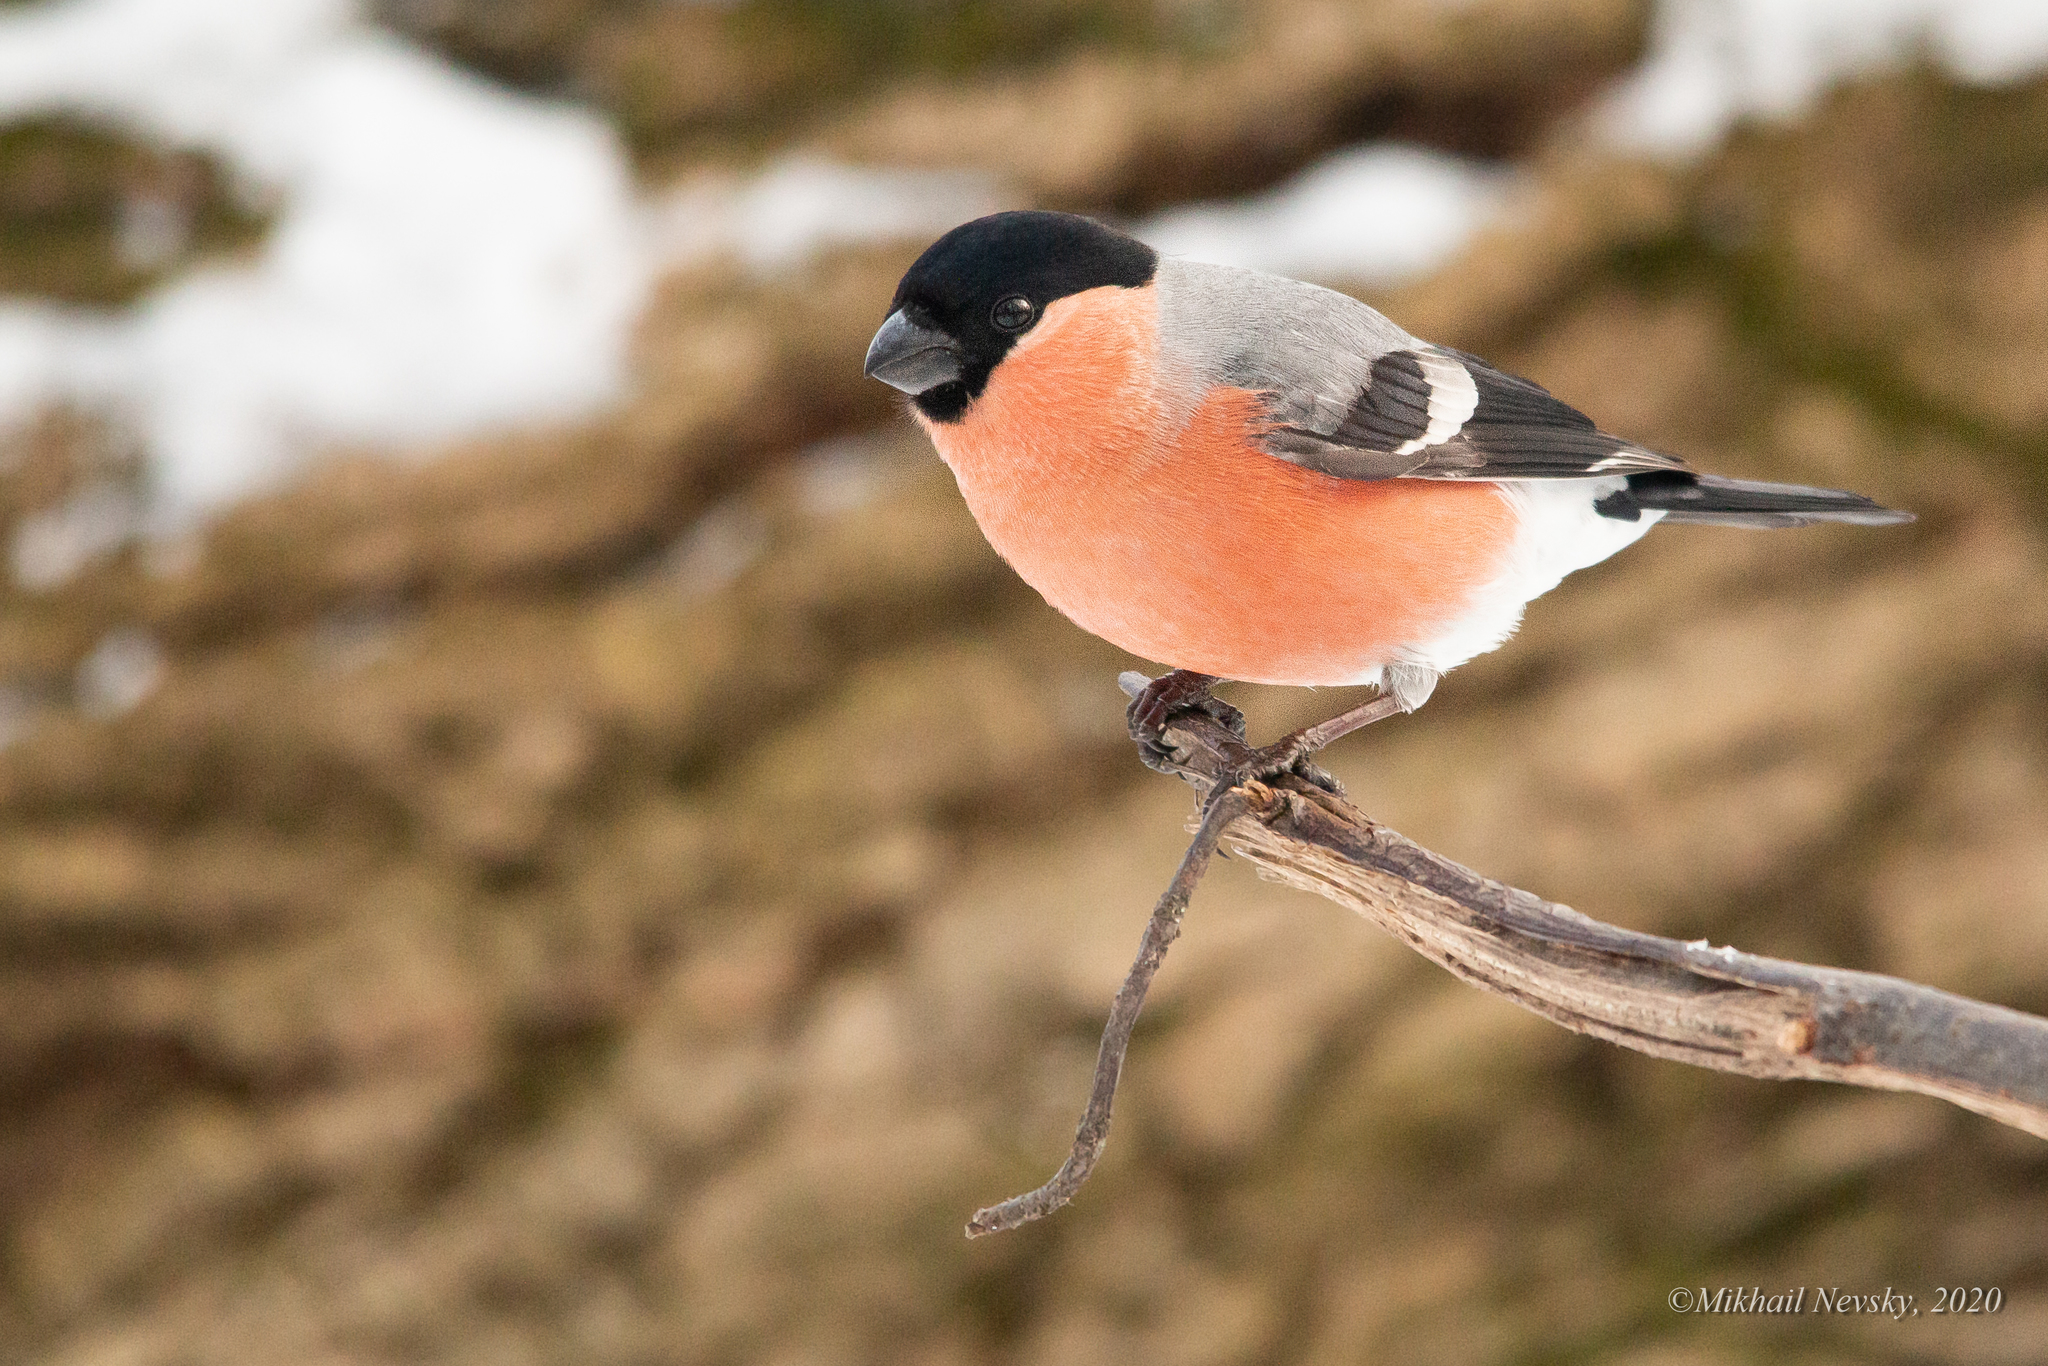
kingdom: Animalia
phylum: Chordata
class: Aves
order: Passeriformes
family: Fringillidae
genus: Pyrrhula
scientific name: Pyrrhula pyrrhula
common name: Eurasian bullfinch
